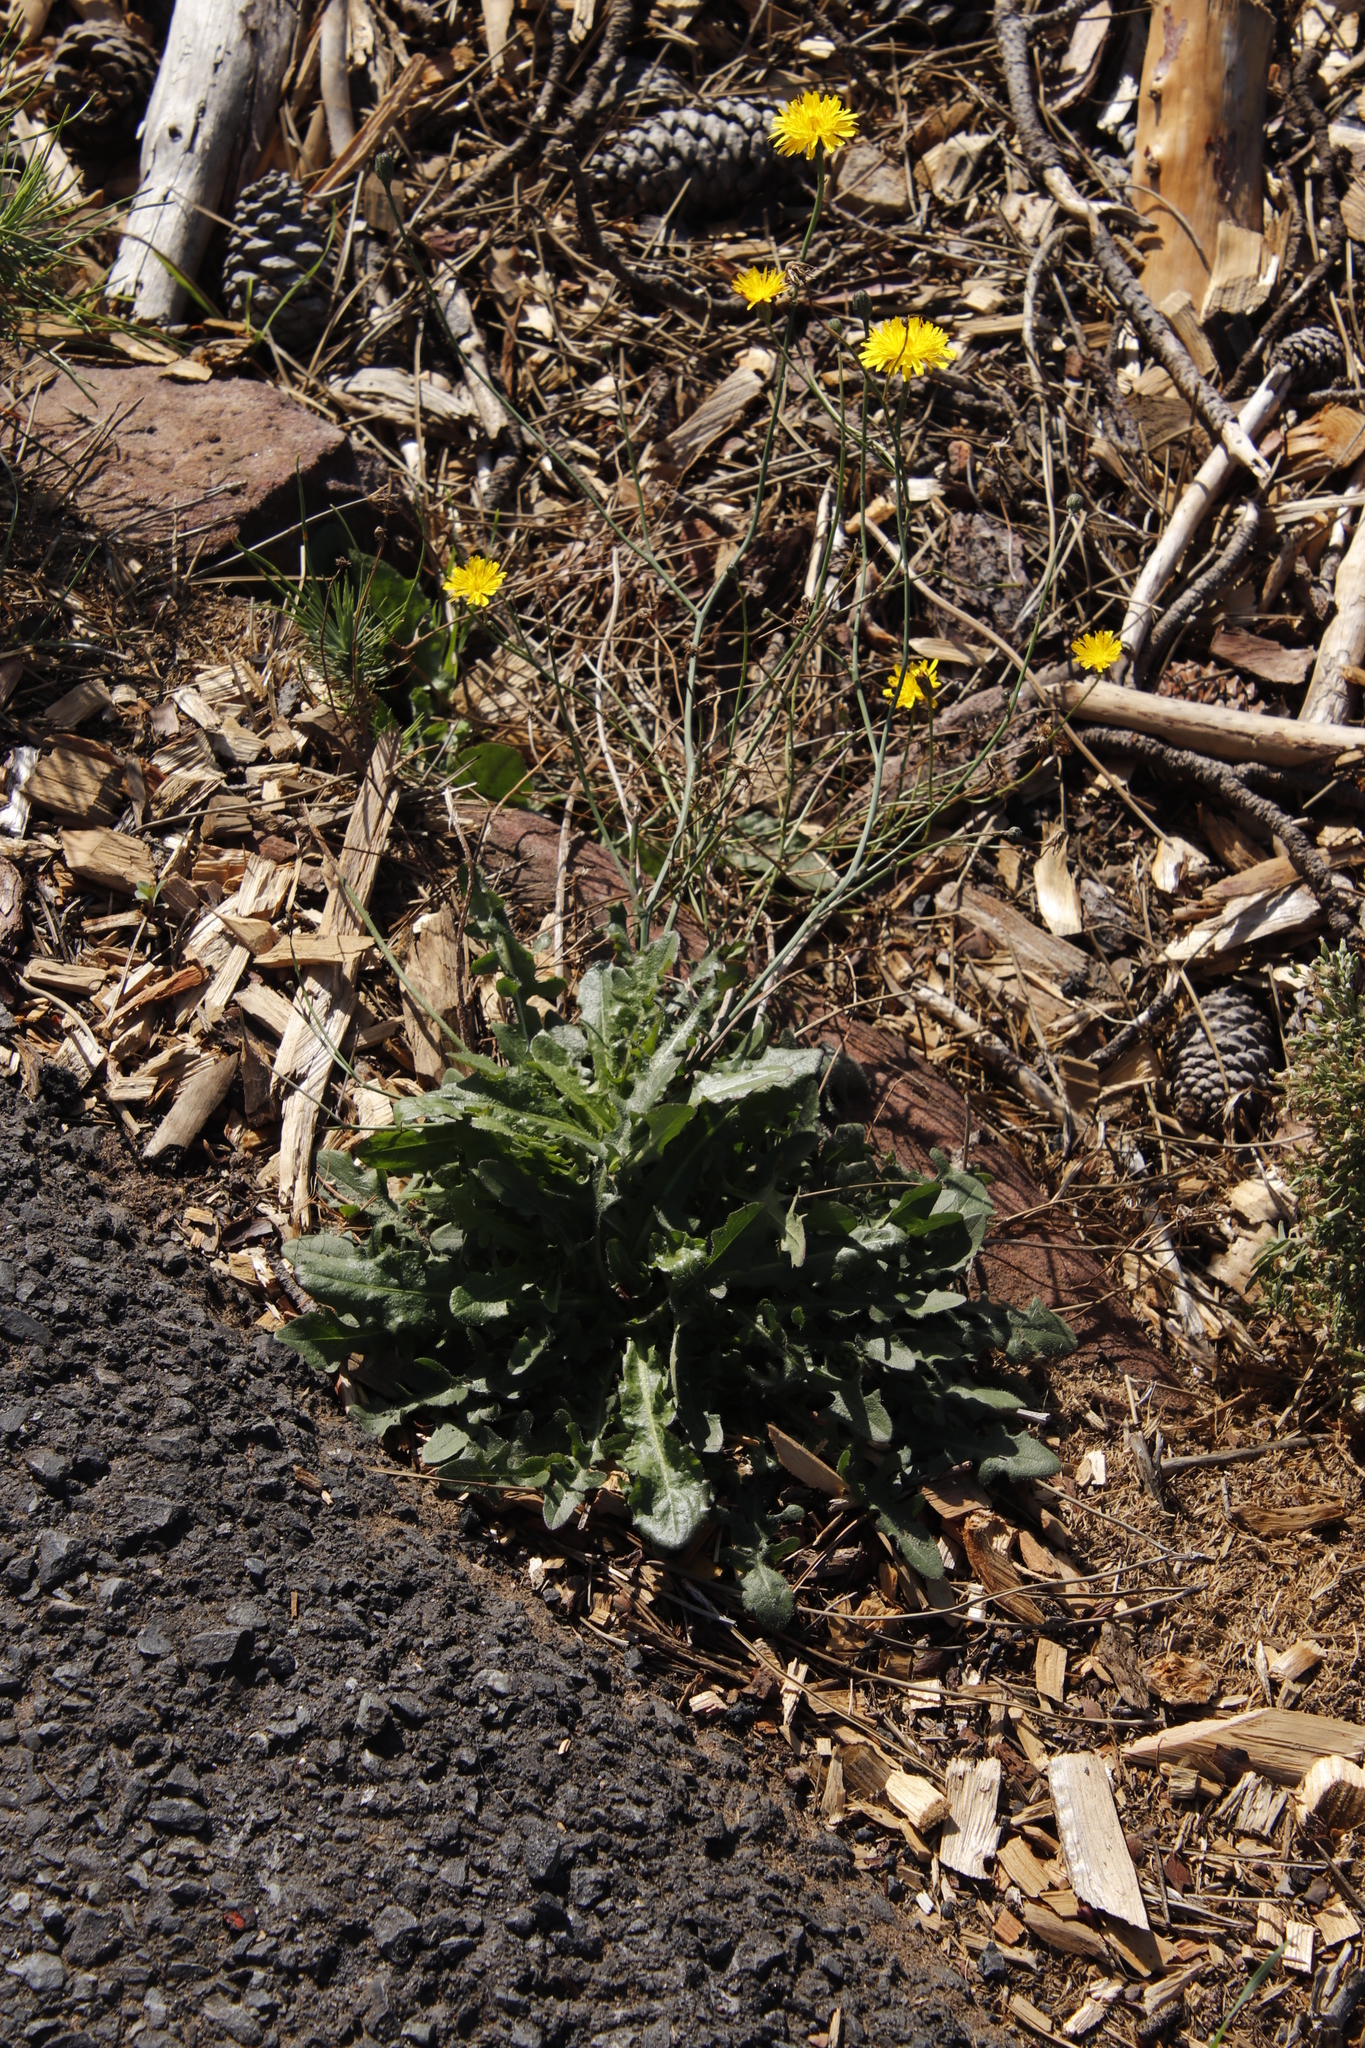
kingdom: Plantae
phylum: Tracheophyta
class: Magnoliopsida
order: Asterales
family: Asteraceae
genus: Hypochaeris
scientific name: Hypochaeris radicata
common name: Flatweed
